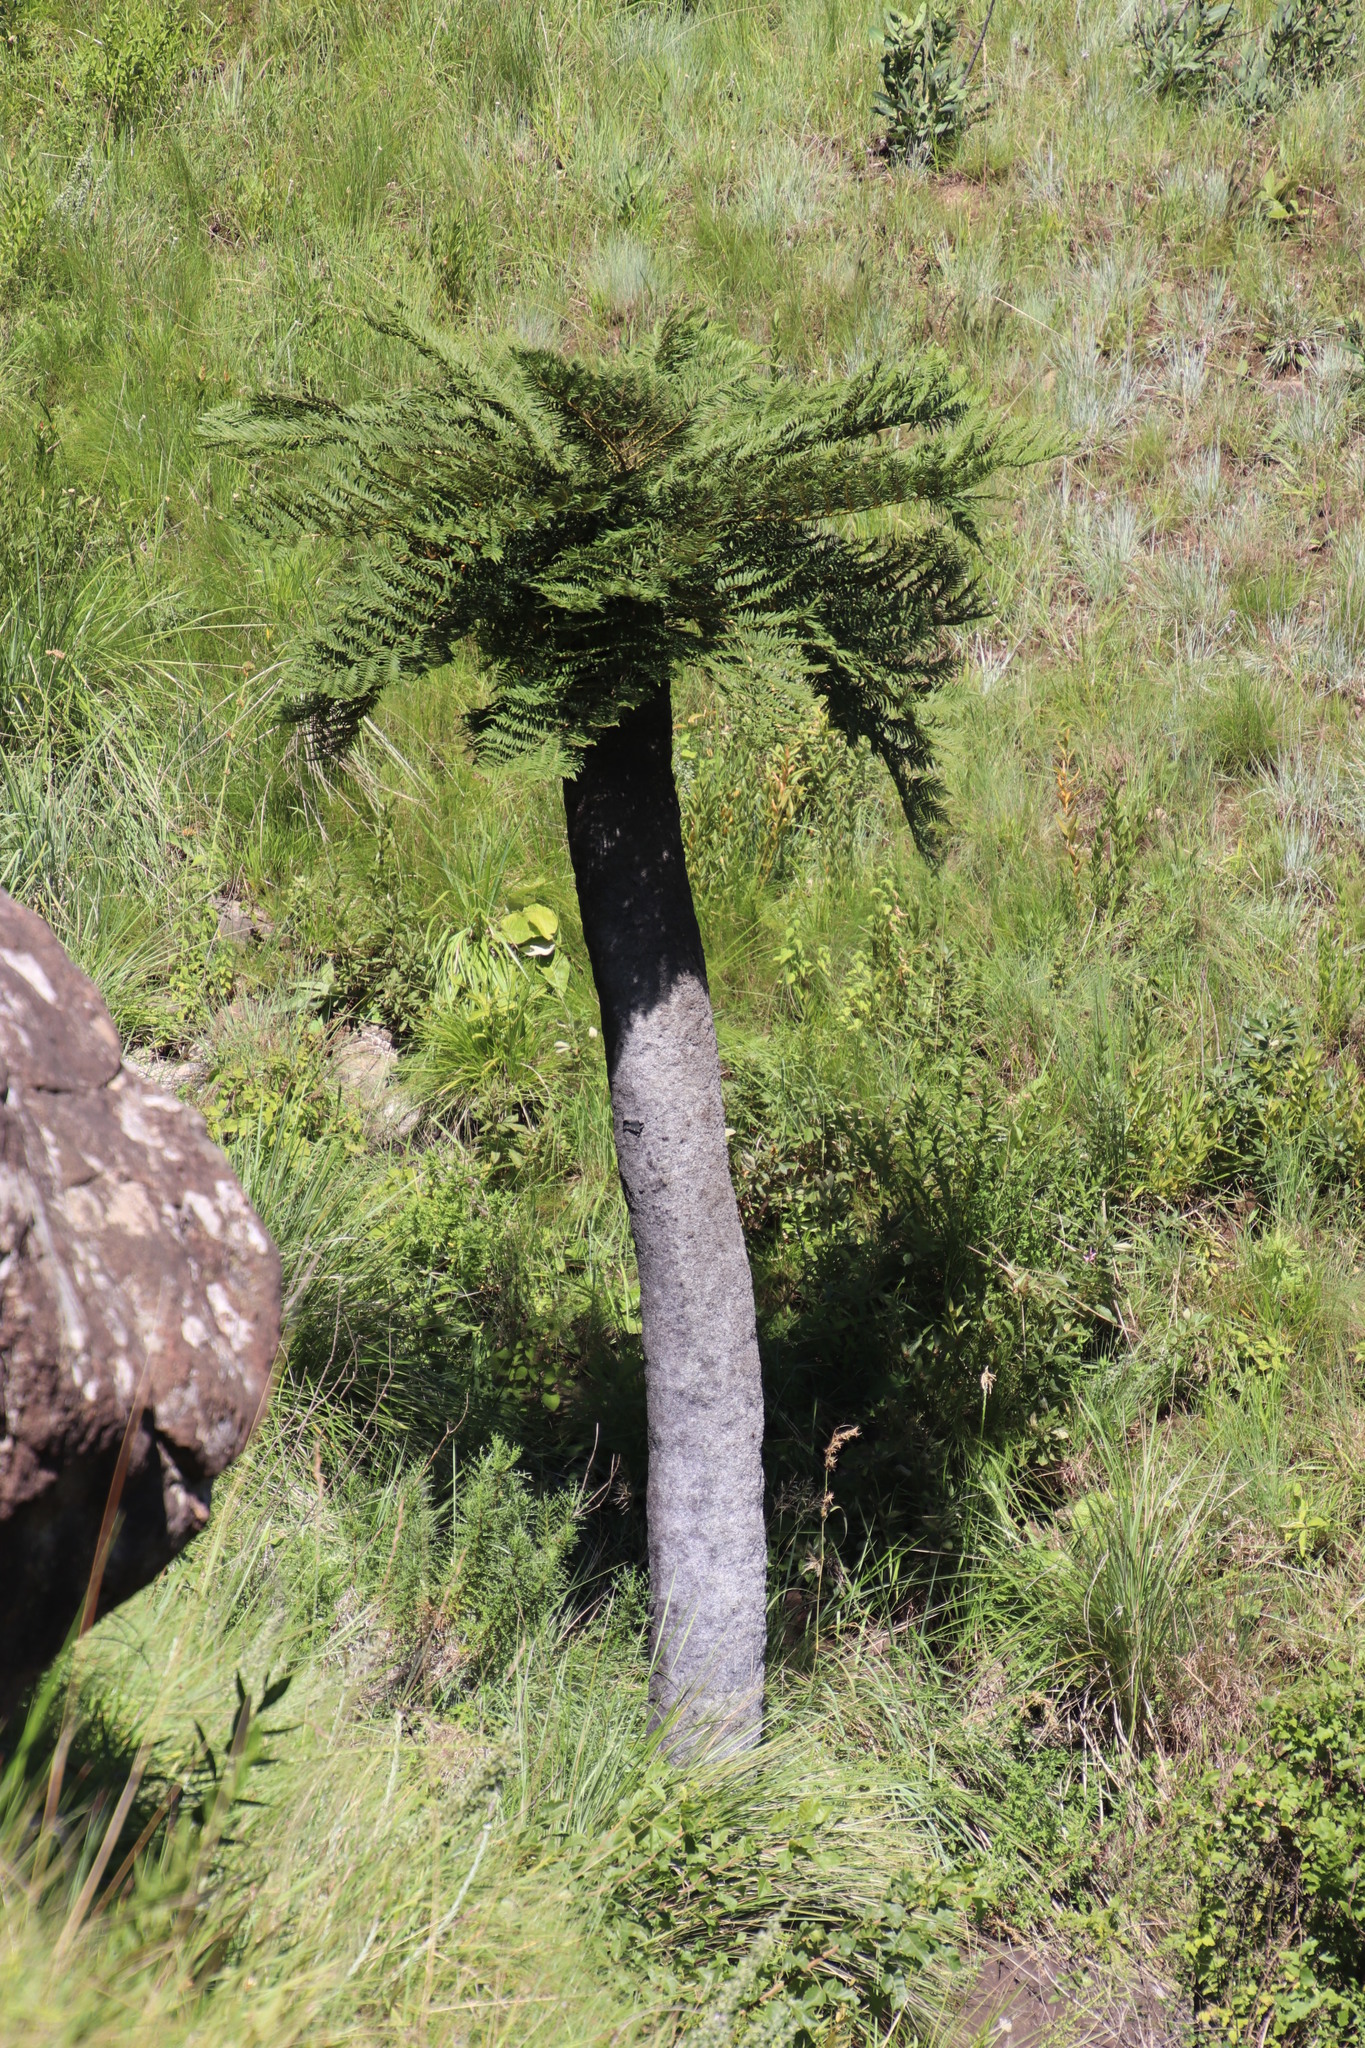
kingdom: Plantae
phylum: Tracheophyta
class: Polypodiopsida
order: Cyatheales
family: Cyatheaceae
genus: Alsophila
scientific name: Alsophila dregei
